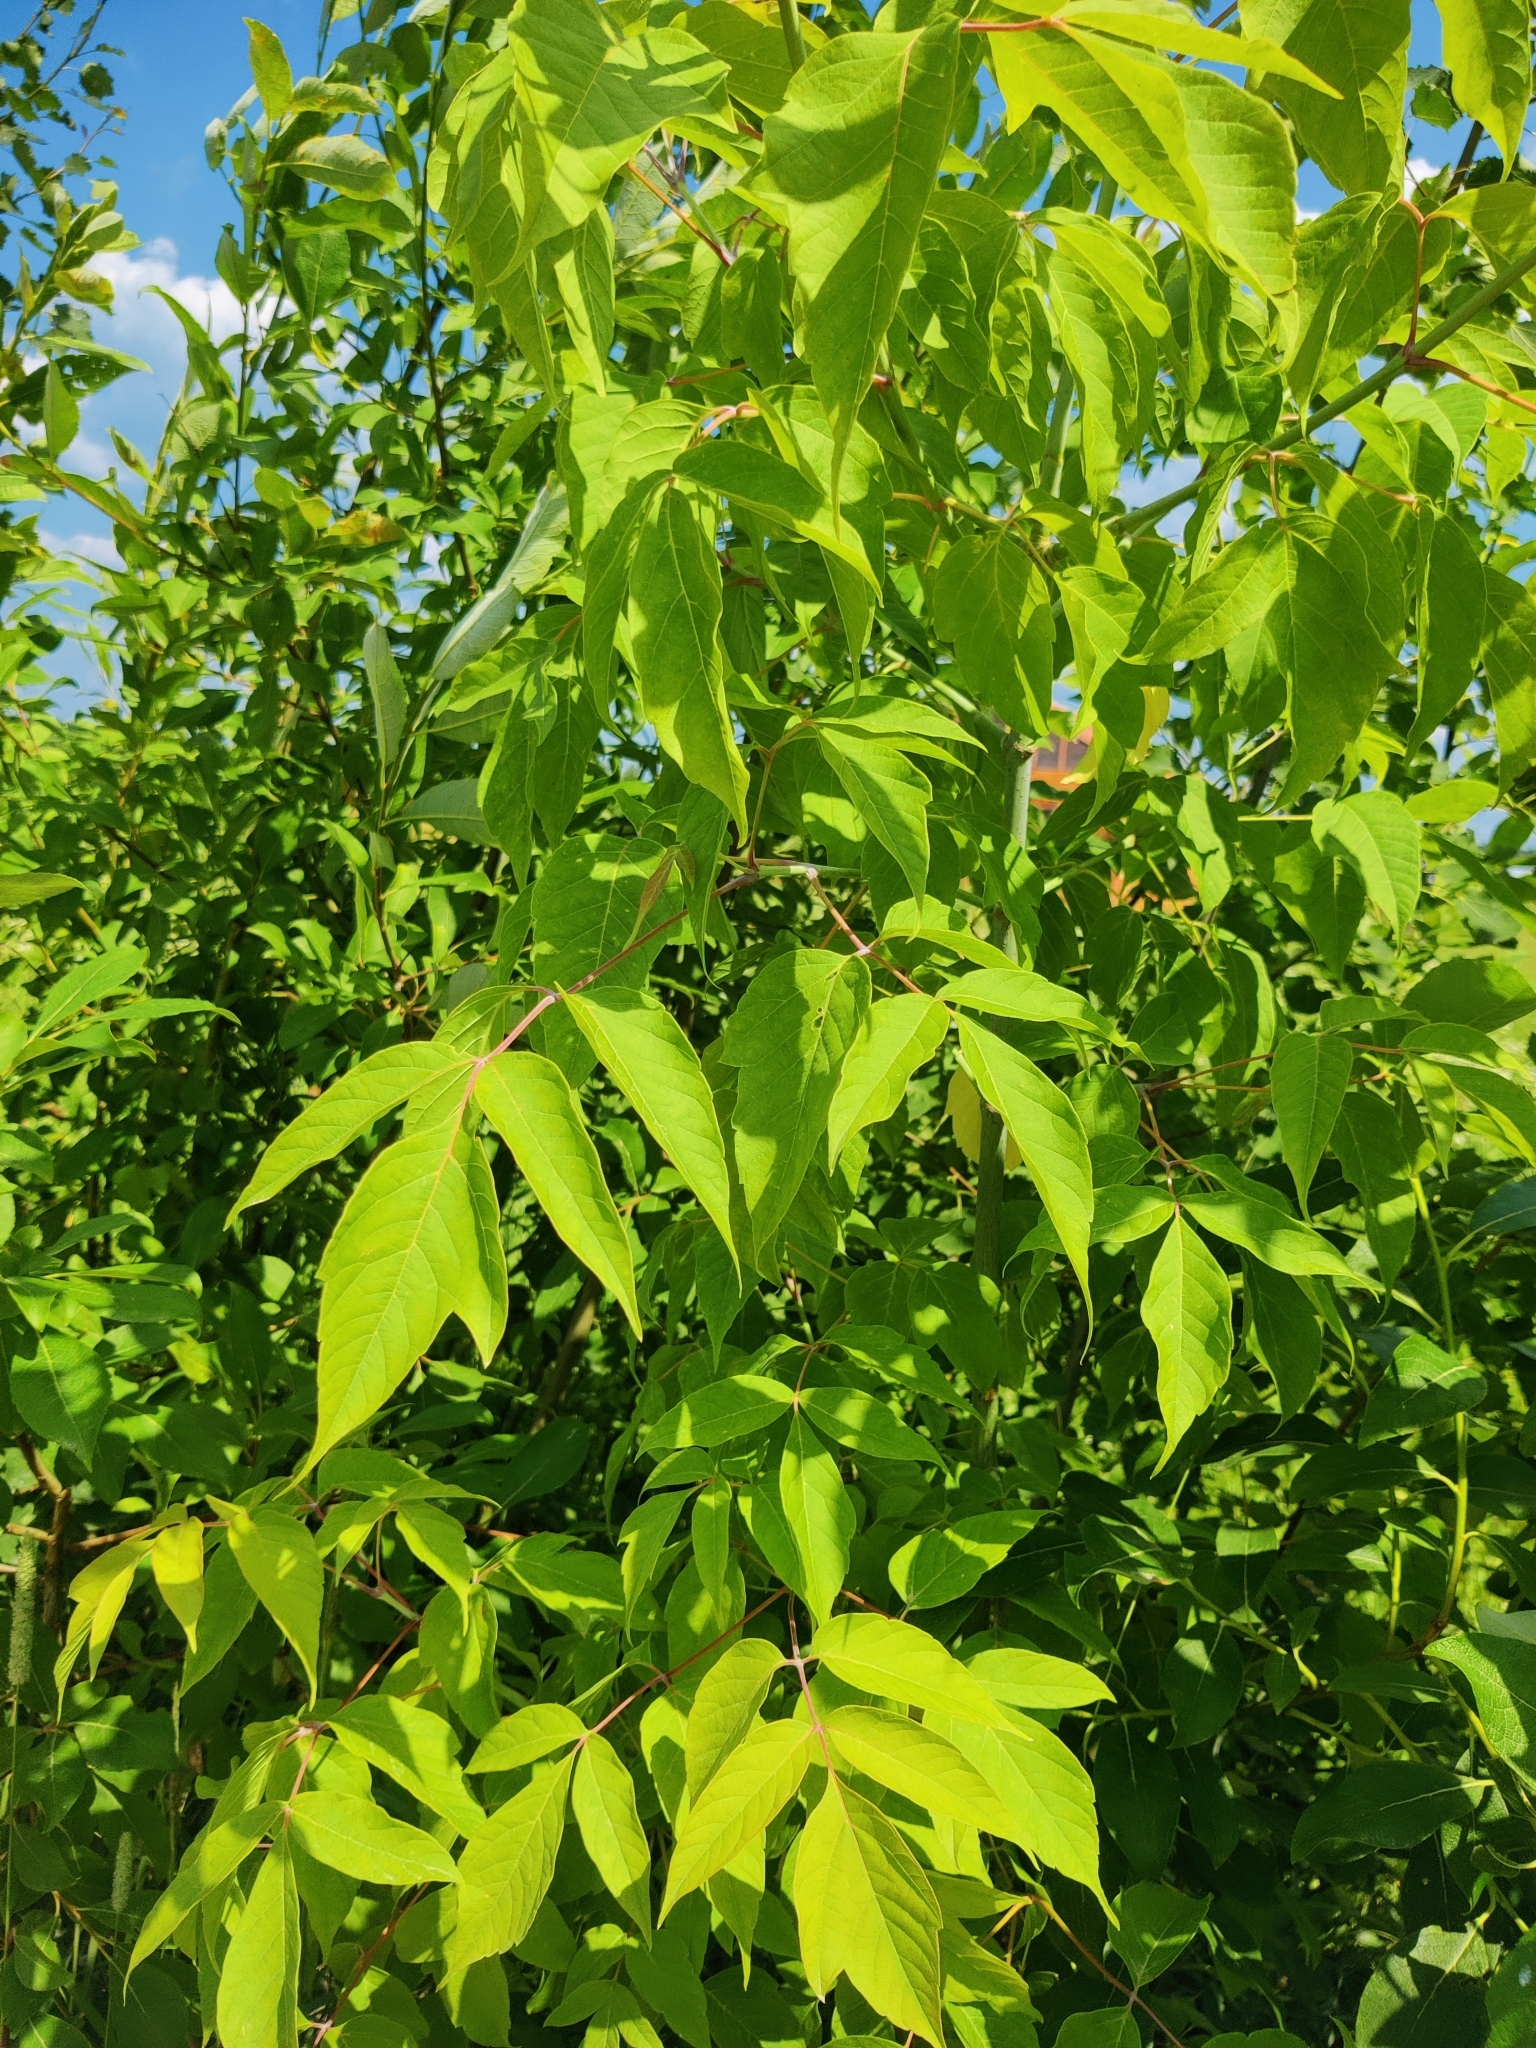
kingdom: Plantae
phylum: Tracheophyta
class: Magnoliopsida
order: Sapindales
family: Sapindaceae
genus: Acer
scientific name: Acer negundo
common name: Ashleaf maple
